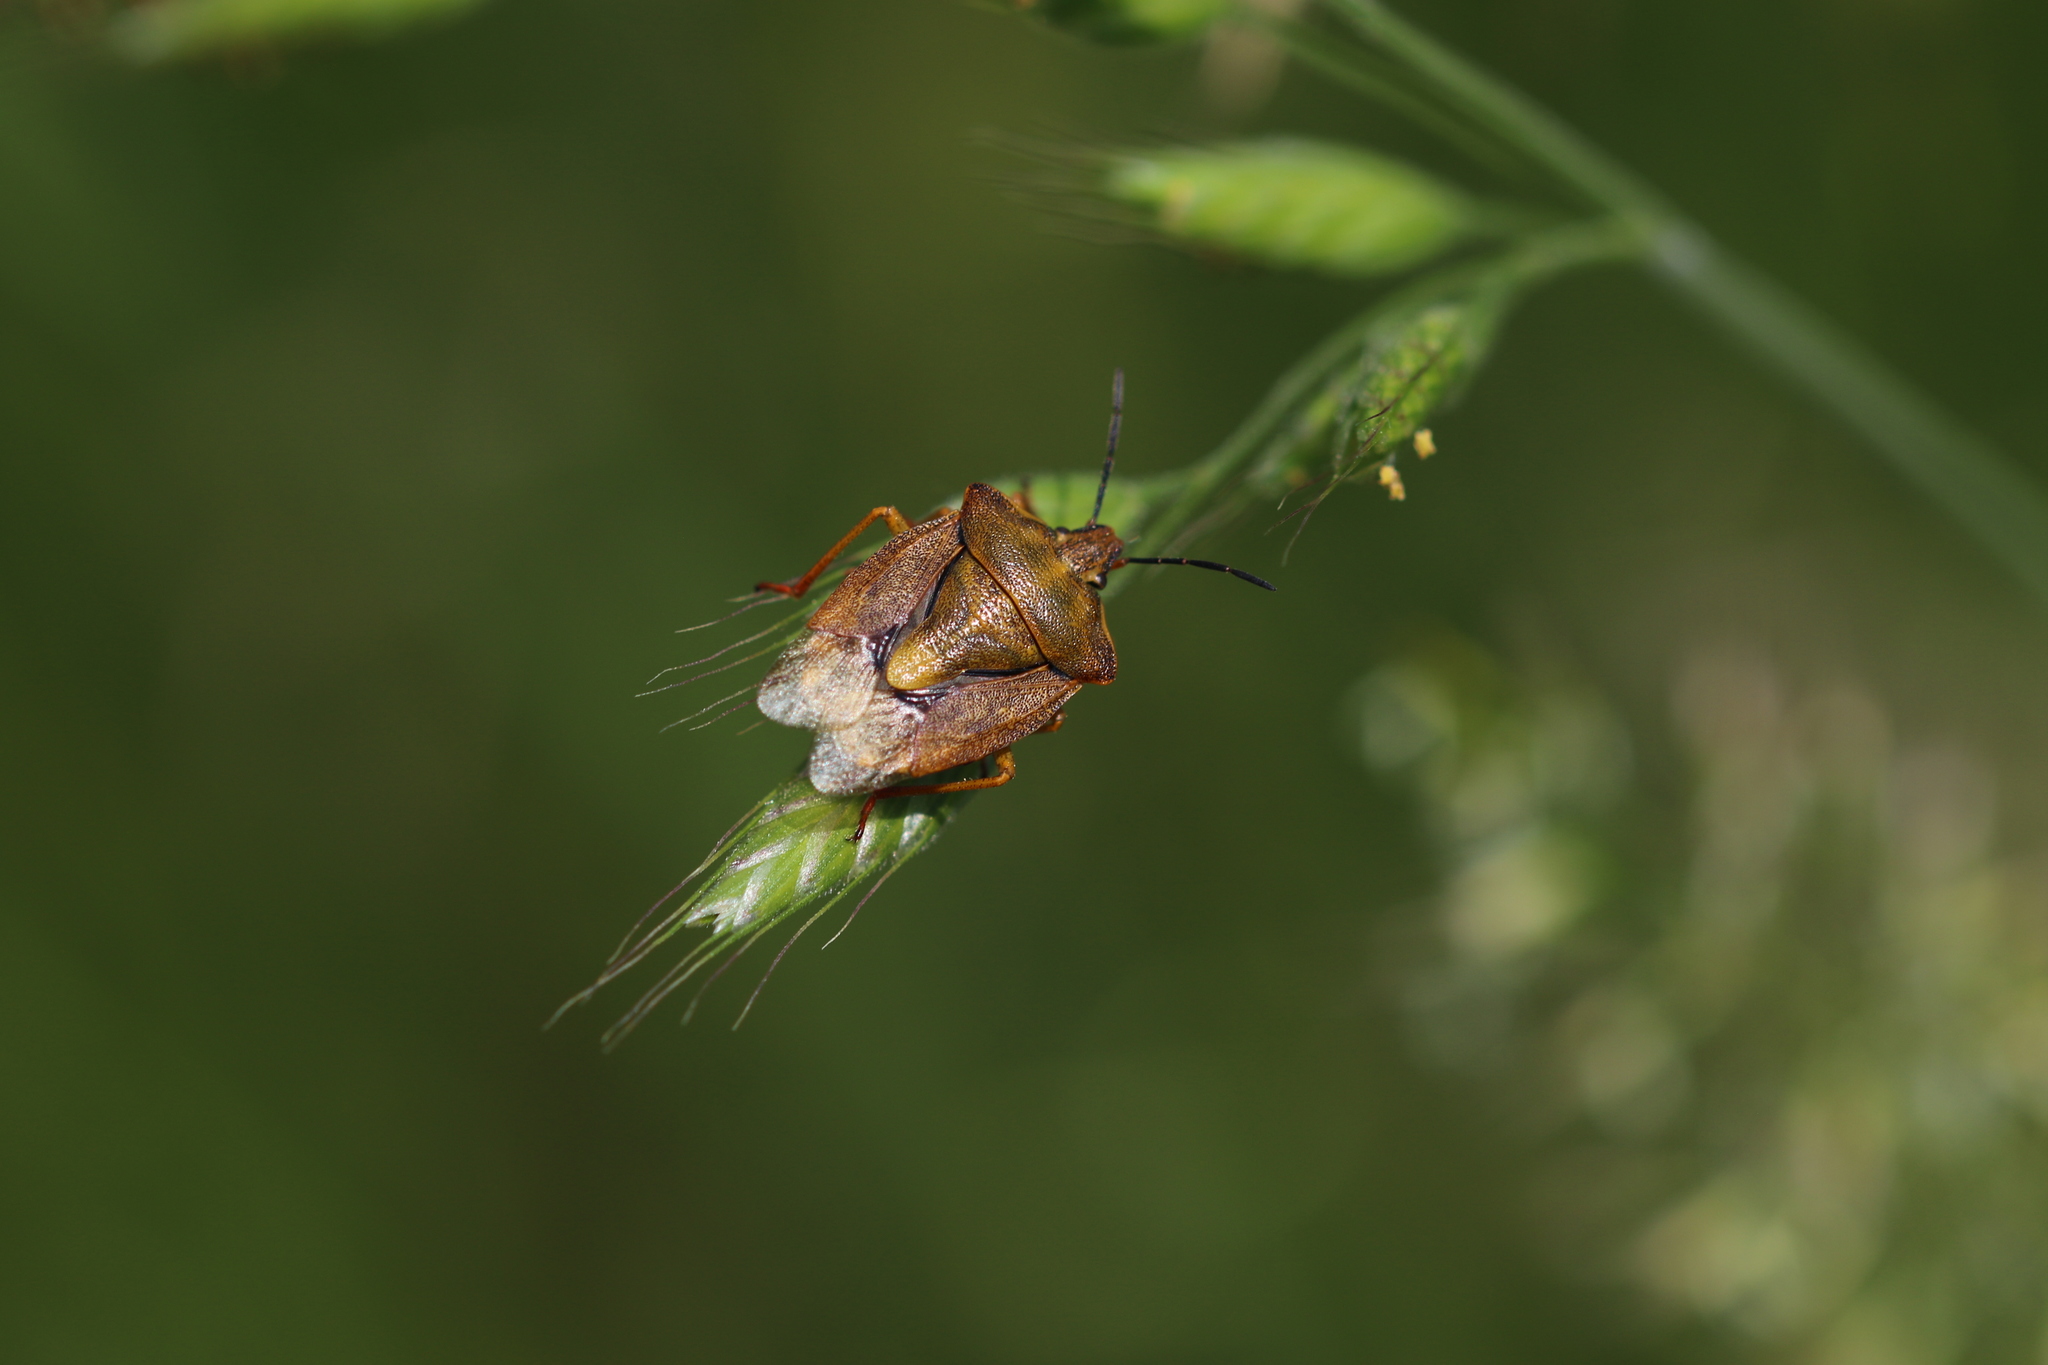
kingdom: Animalia
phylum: Arthropoda
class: Insecta
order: Hemiptera
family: Pentatomidae
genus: Carpocoris
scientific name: Carpocoris purpureipennis
